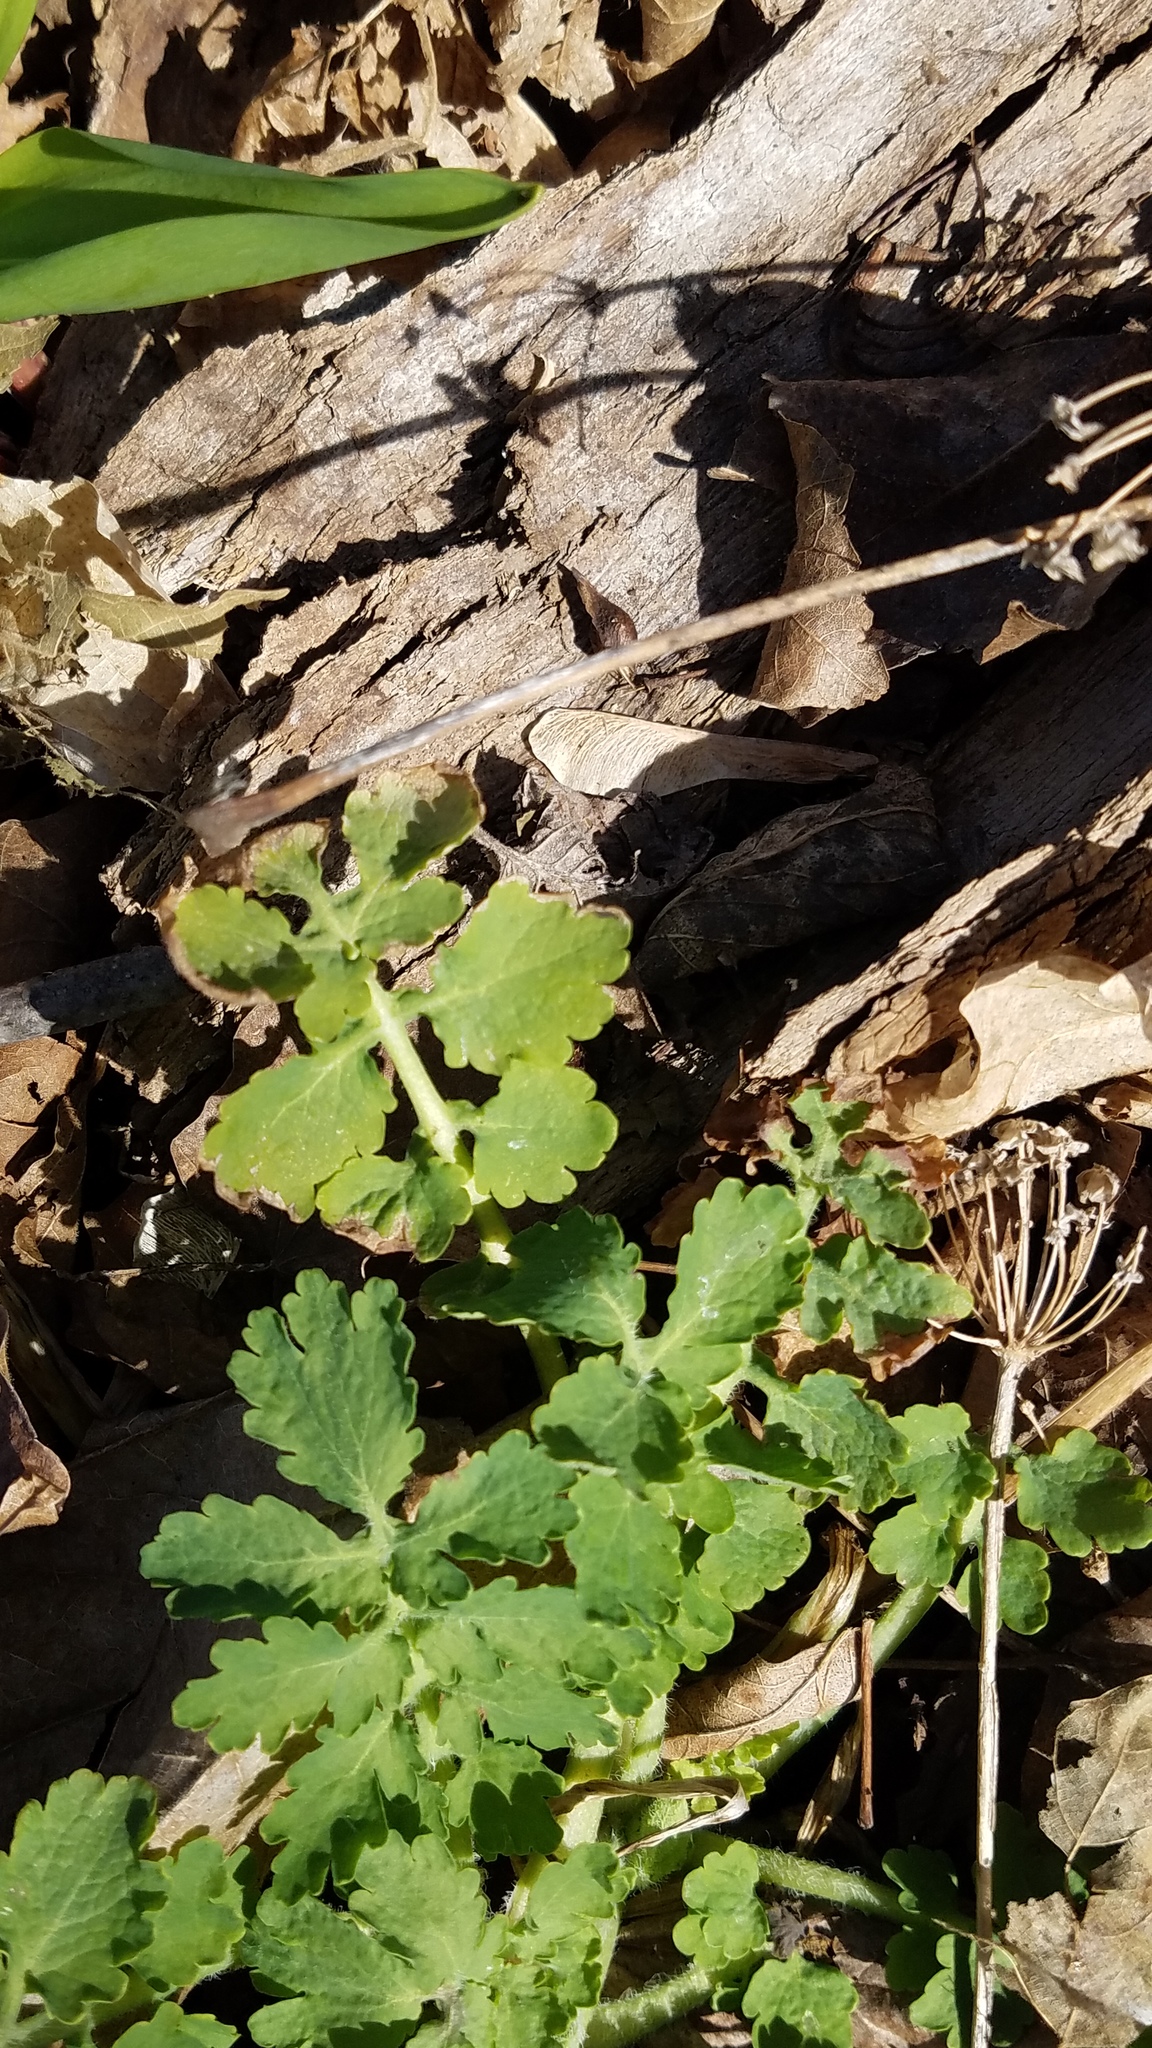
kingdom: Plantae
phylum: Tracheophyta
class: Magnoliopsida
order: Ranunculales
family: Papaveraceae
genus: Chelidonium
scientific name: Chelidonium majus
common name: Greater celandine
